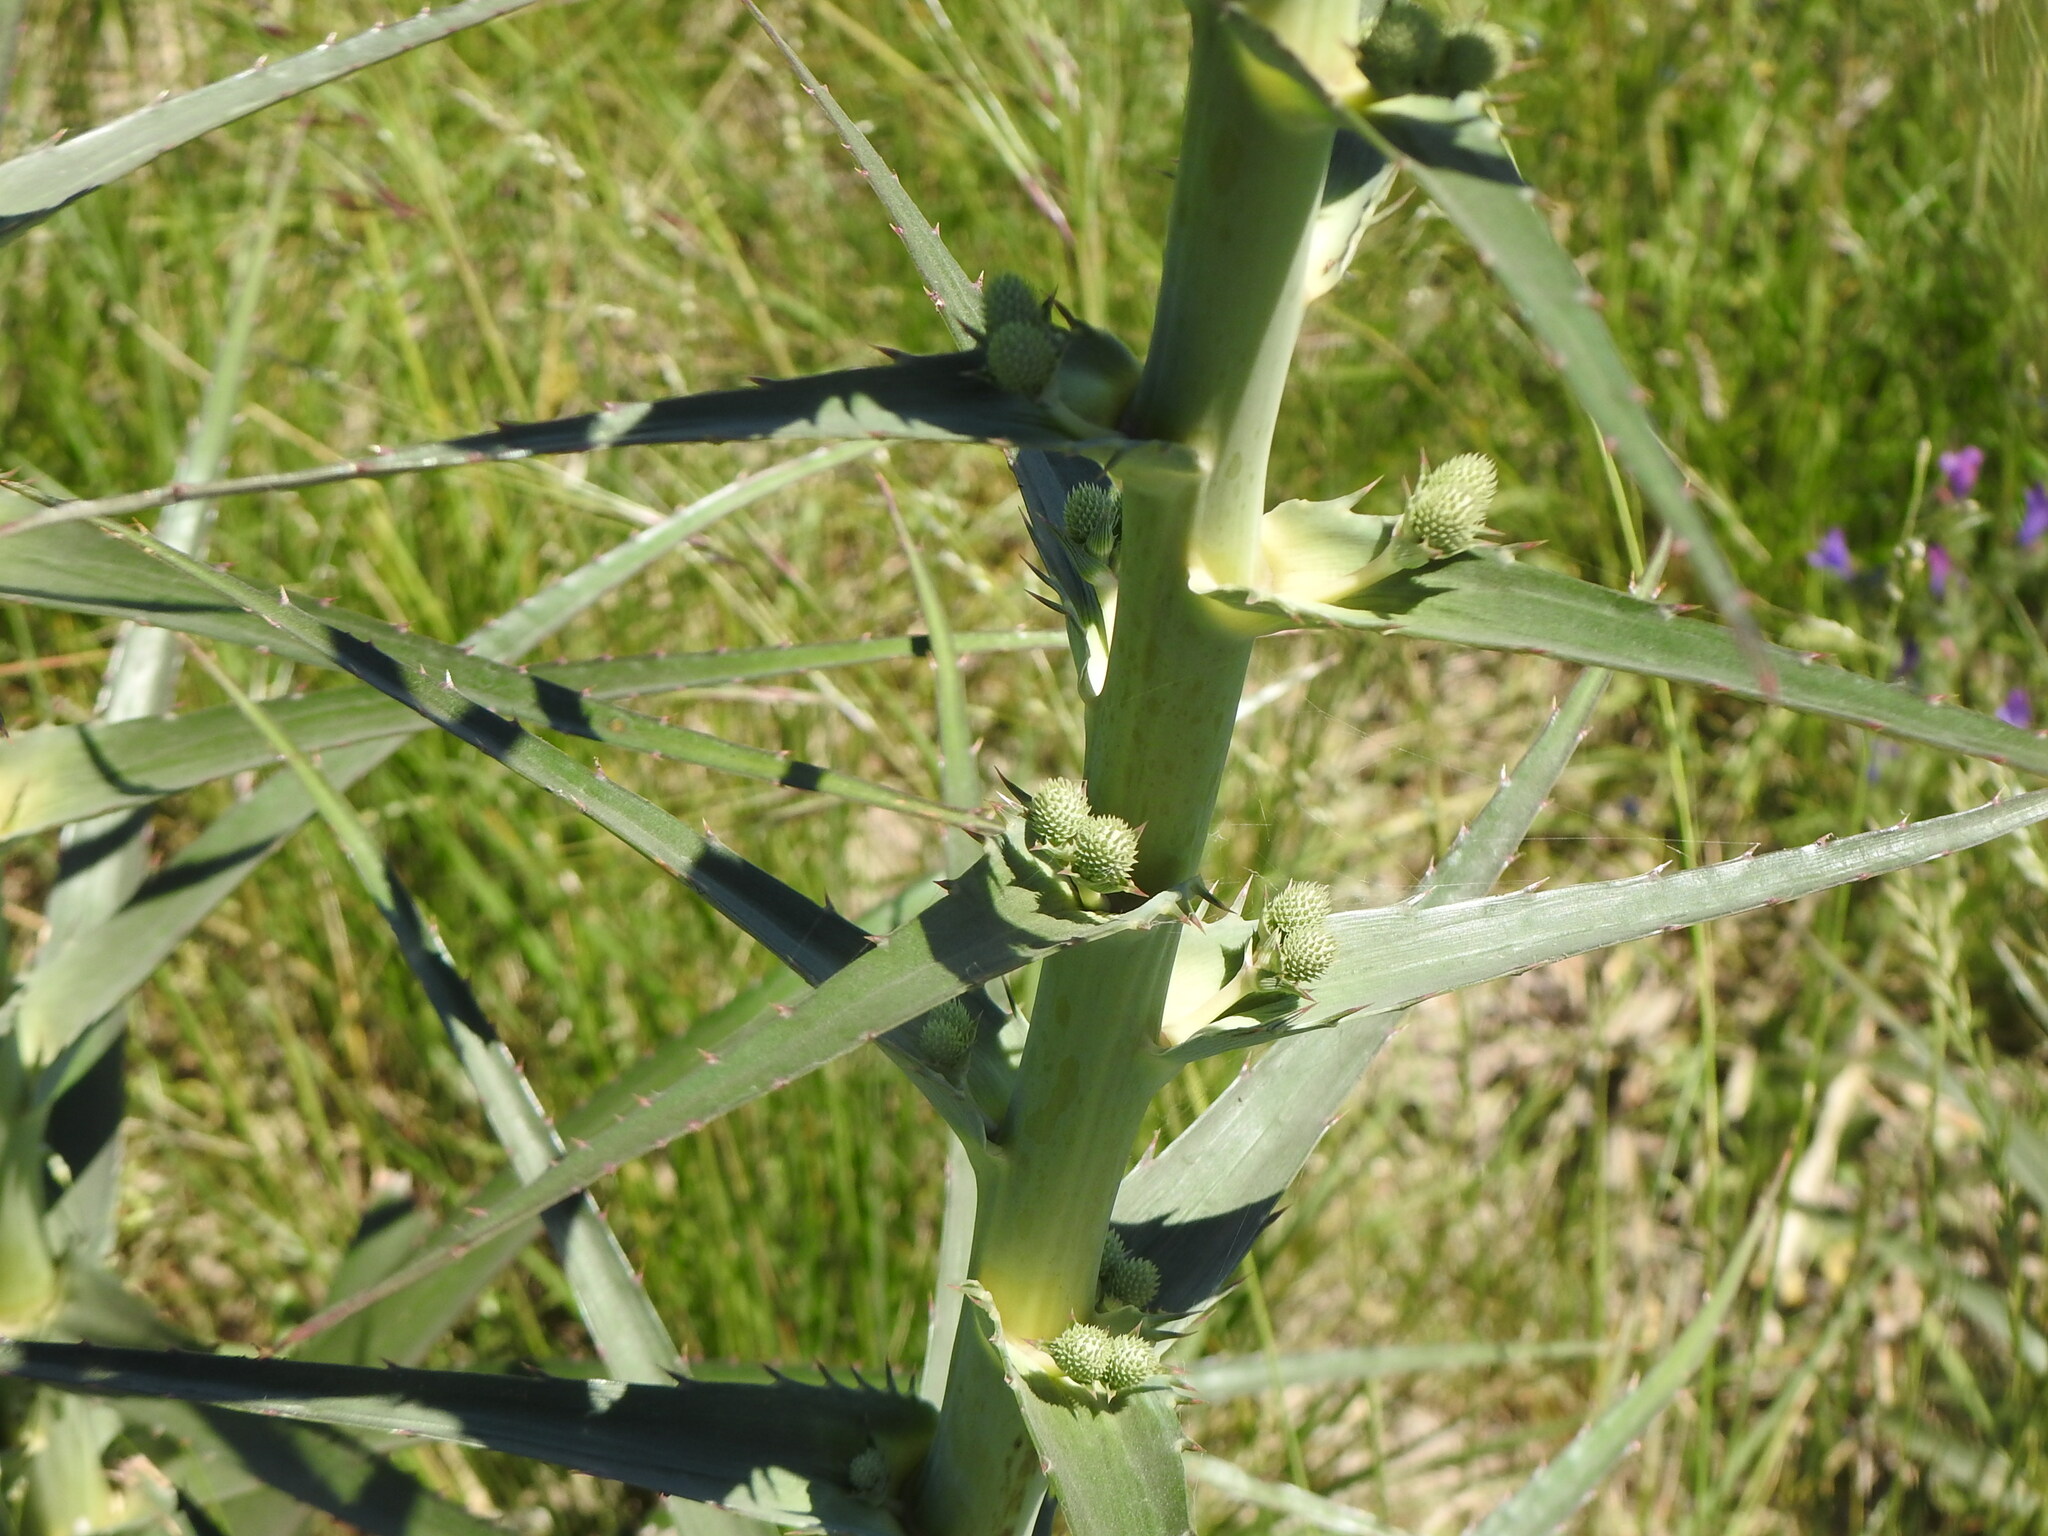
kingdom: Plantae
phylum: Tracheophyta
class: Magnoliopsida
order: Apiales
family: Apiaceae
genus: Eryngium
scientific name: Eryngium horridum
